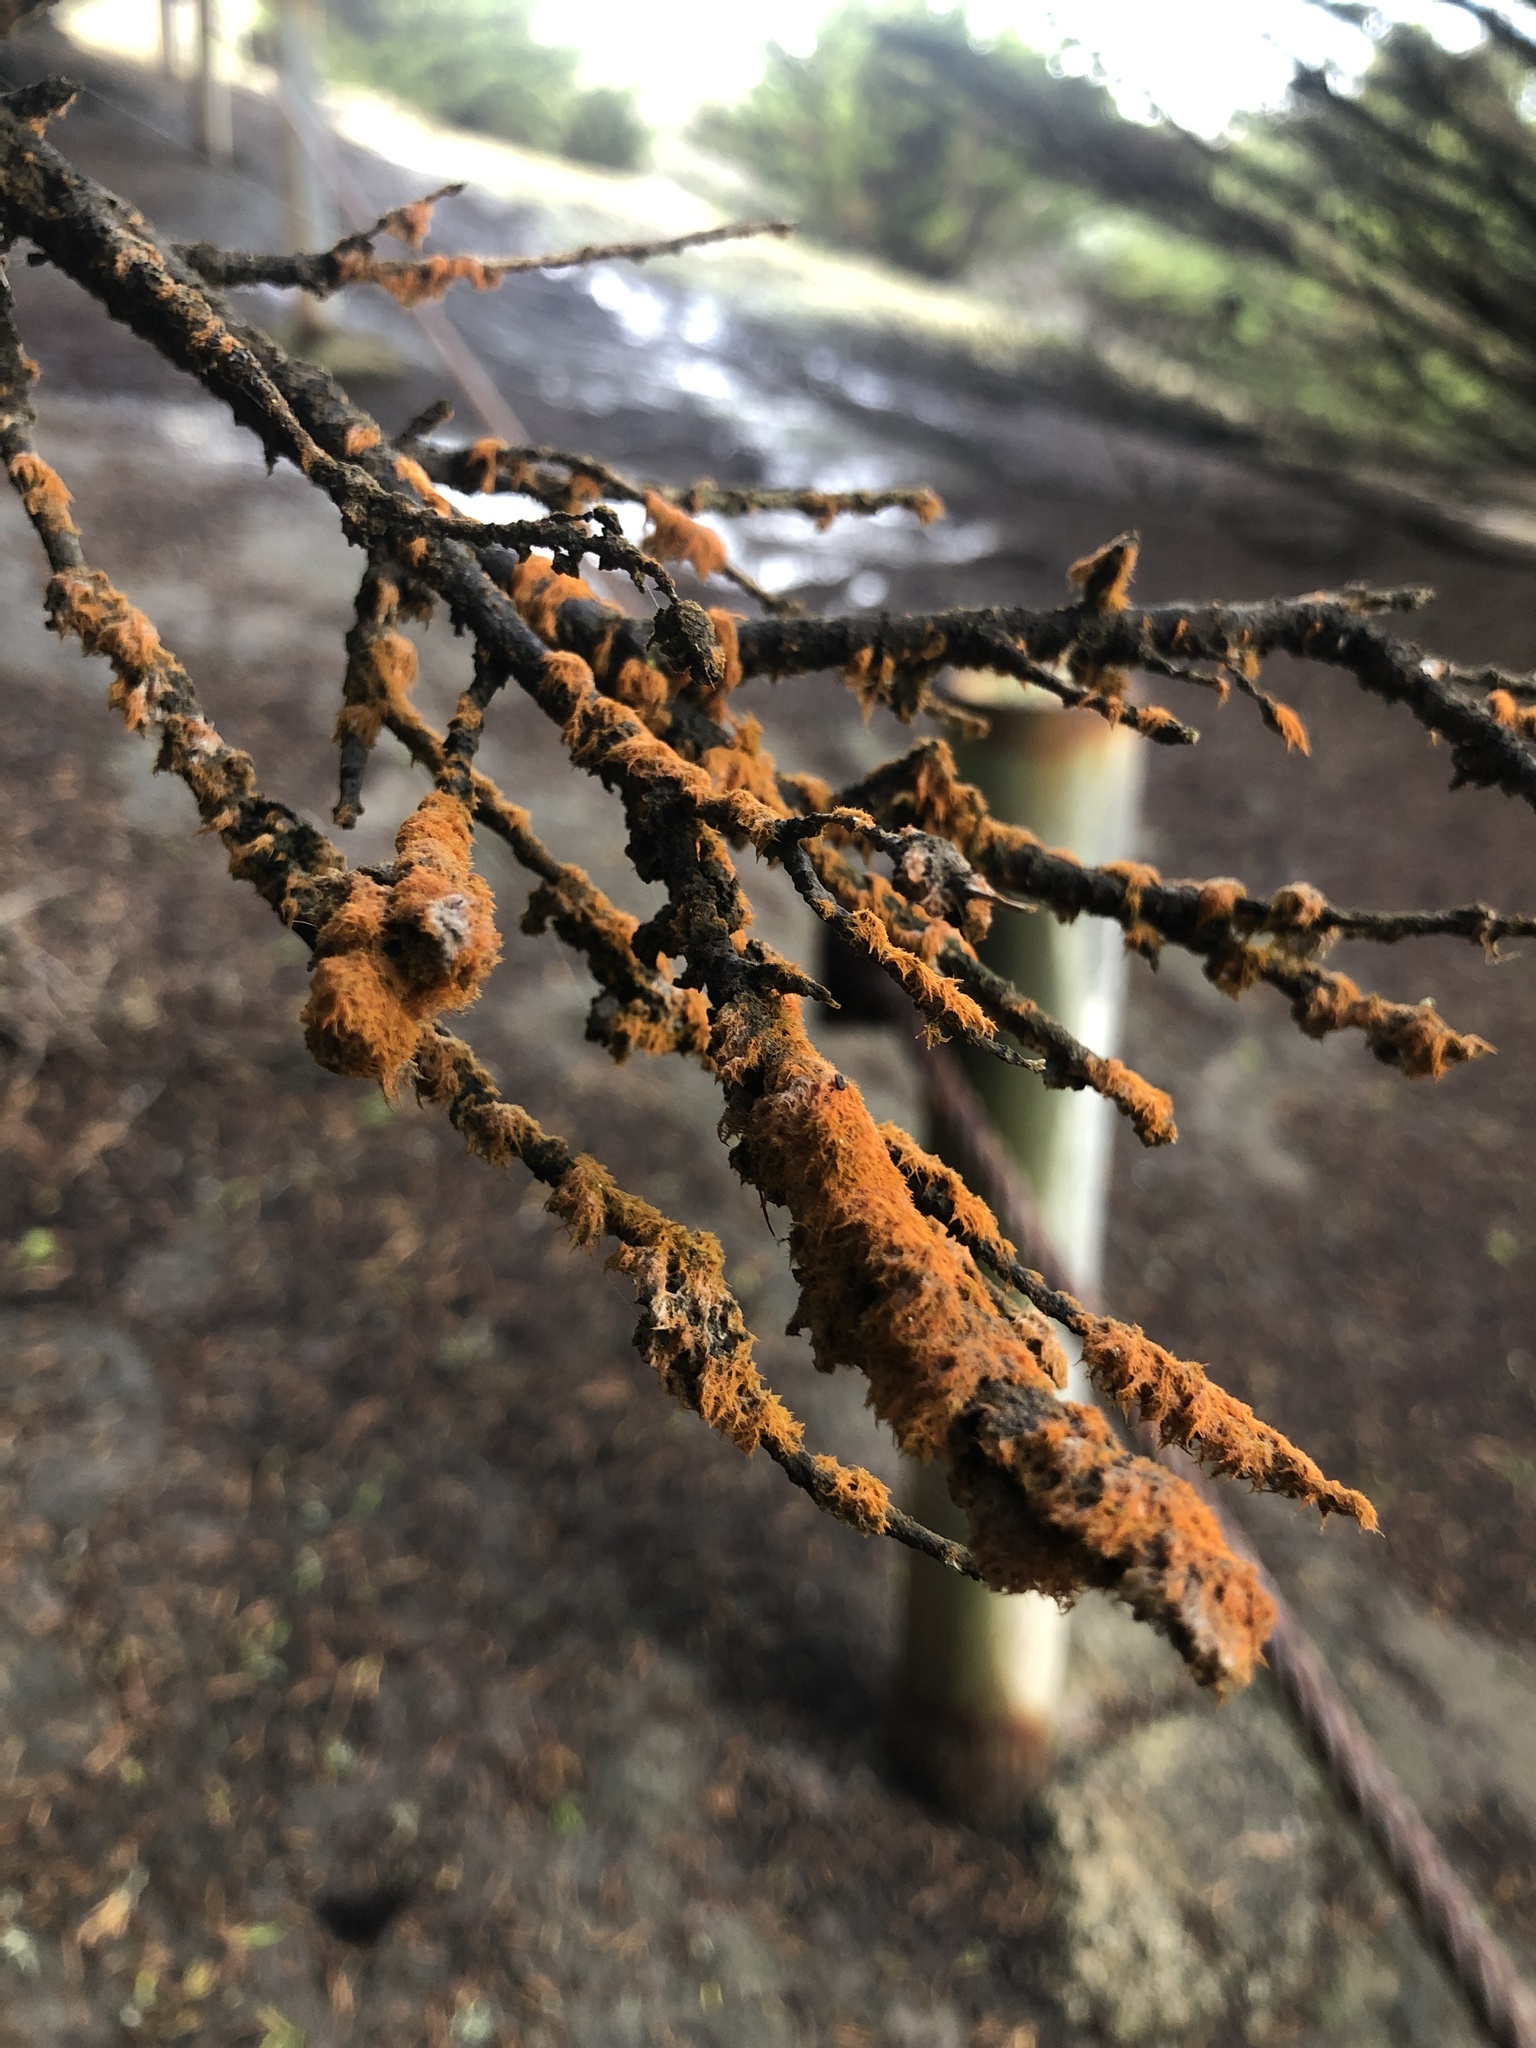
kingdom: Plantae
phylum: Chlorophyta
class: Ulvophyceae
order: Trentepohliales
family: Trentepohliaceae
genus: Trentepohlia
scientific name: Trentepohlia aurea
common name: Orange rock hair
